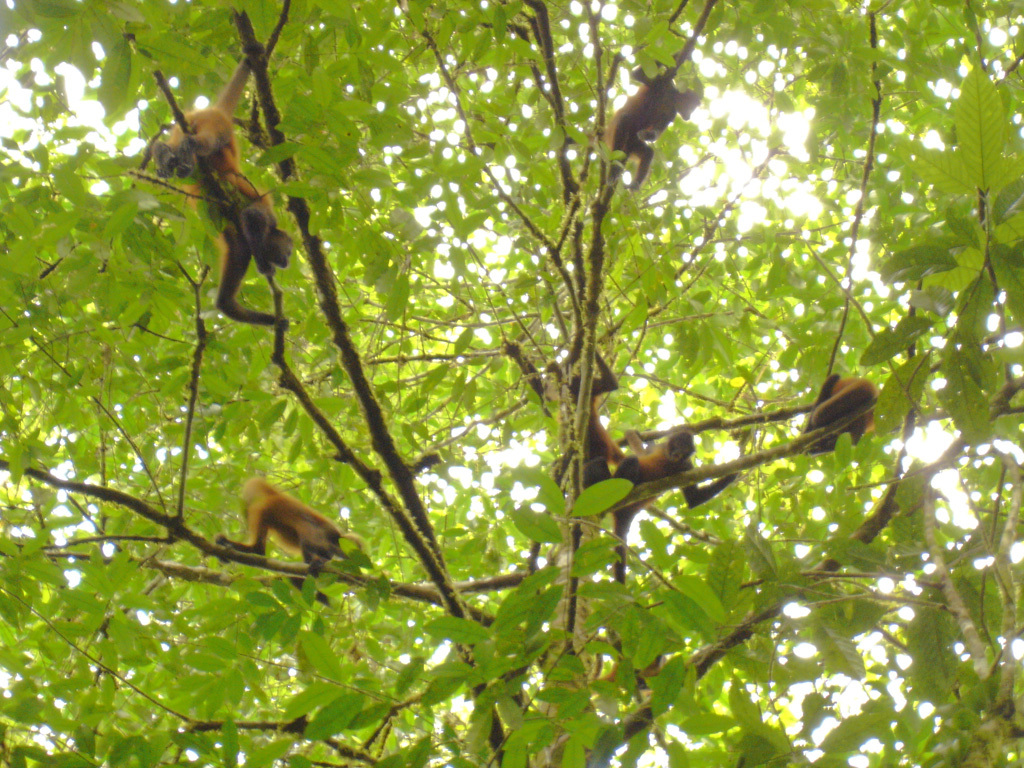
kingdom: Animalia
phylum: Chordata
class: Mammalia
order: Primates
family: Atelidae
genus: Ateles
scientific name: Ateles geoffroyi
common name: Black-handed spider monkey
